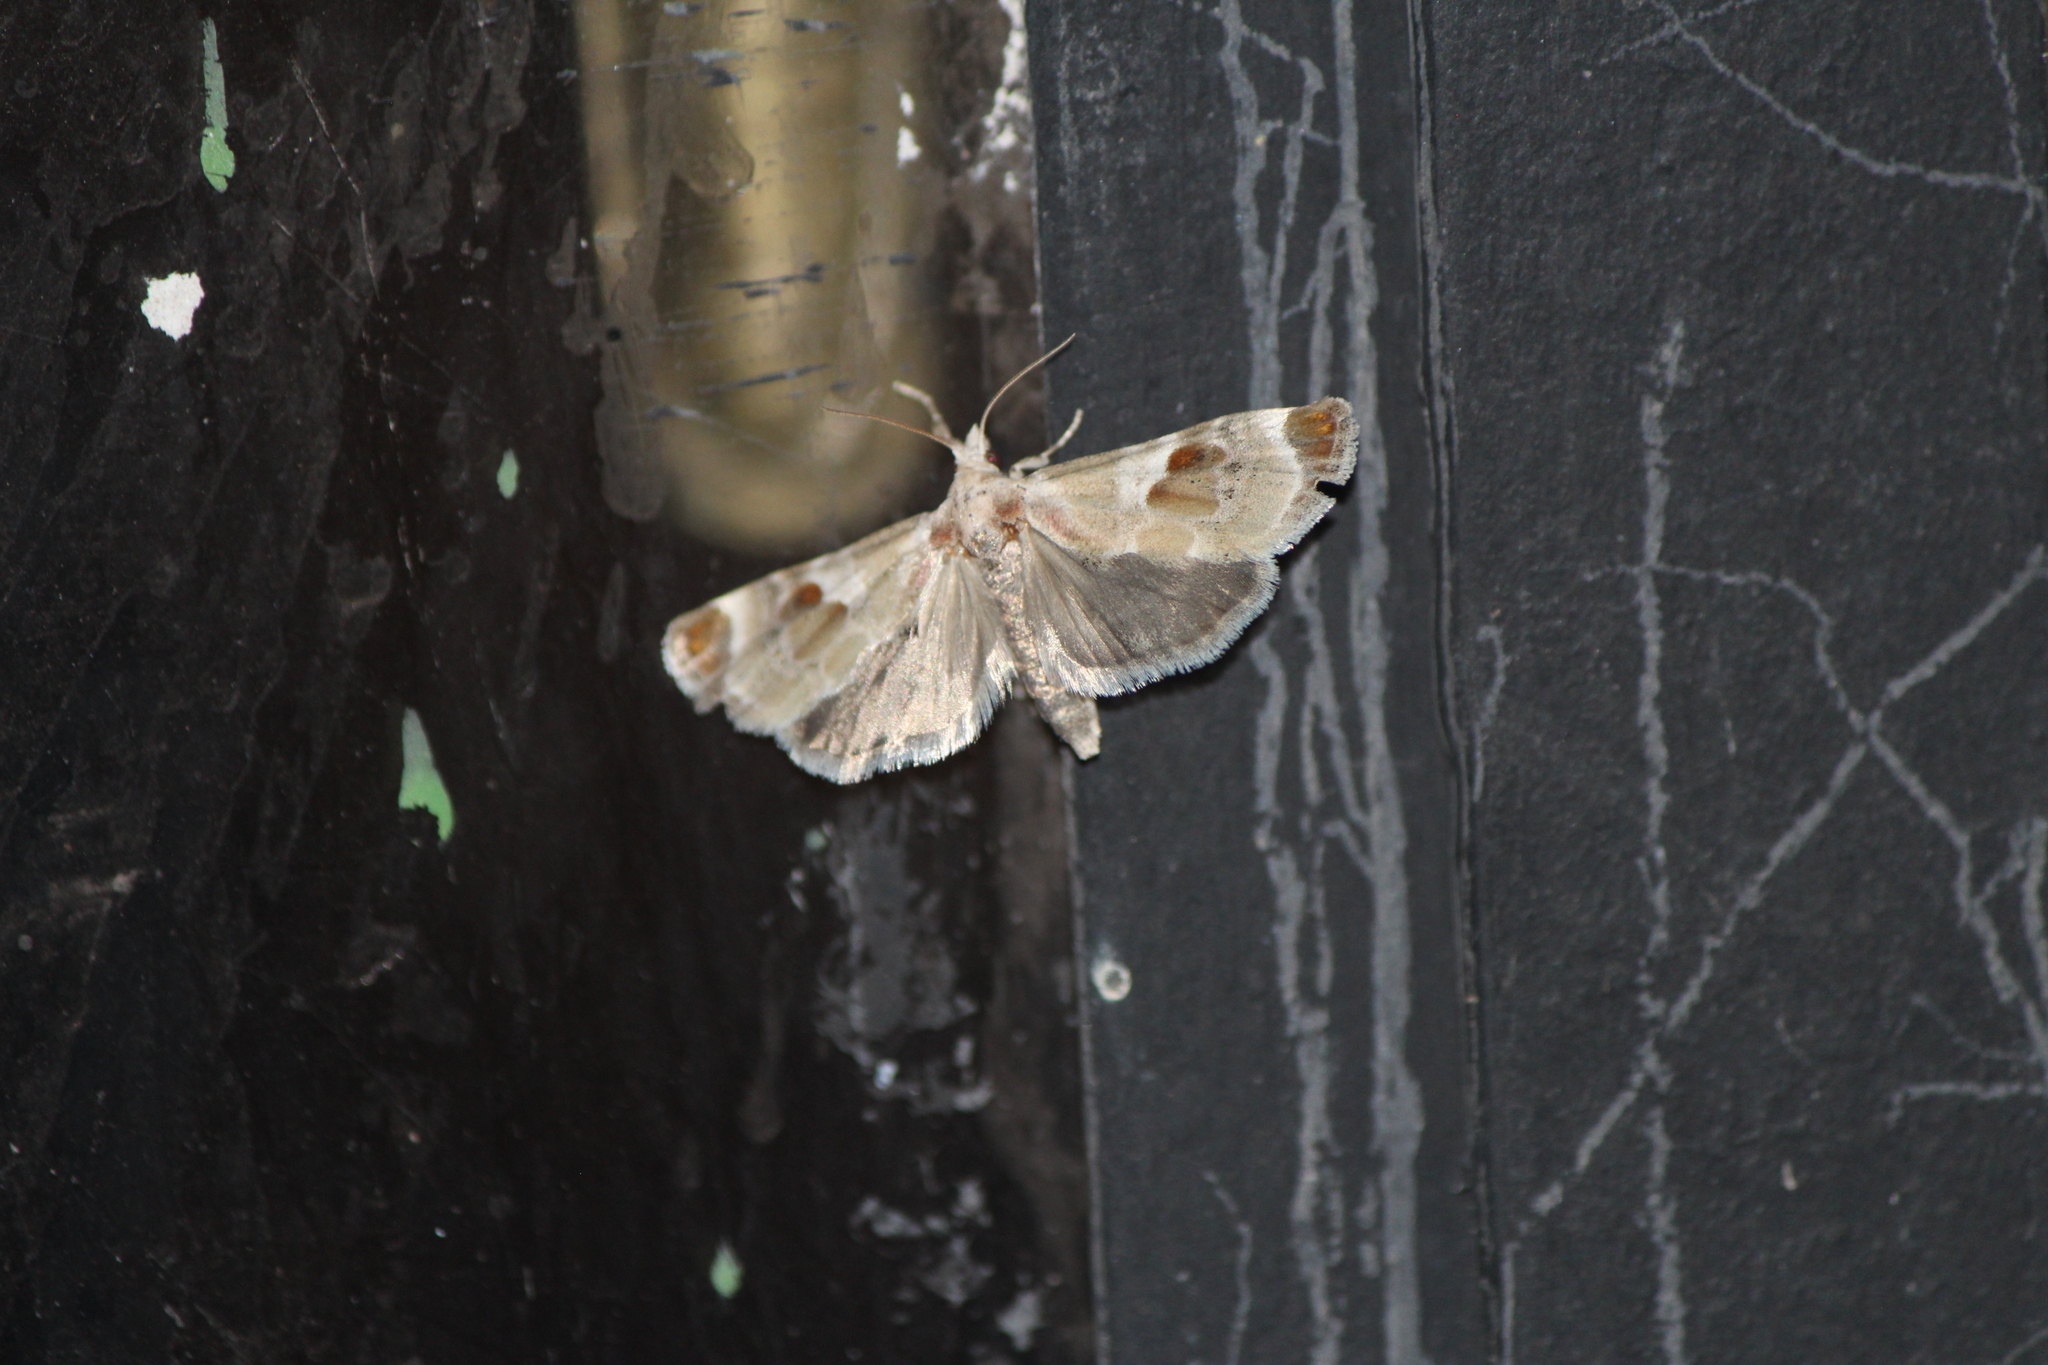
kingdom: Animalia
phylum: Arthropoda
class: Insecta
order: Lepidoptera
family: Pyralidae
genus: Cromarcha
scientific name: Cromarcha
